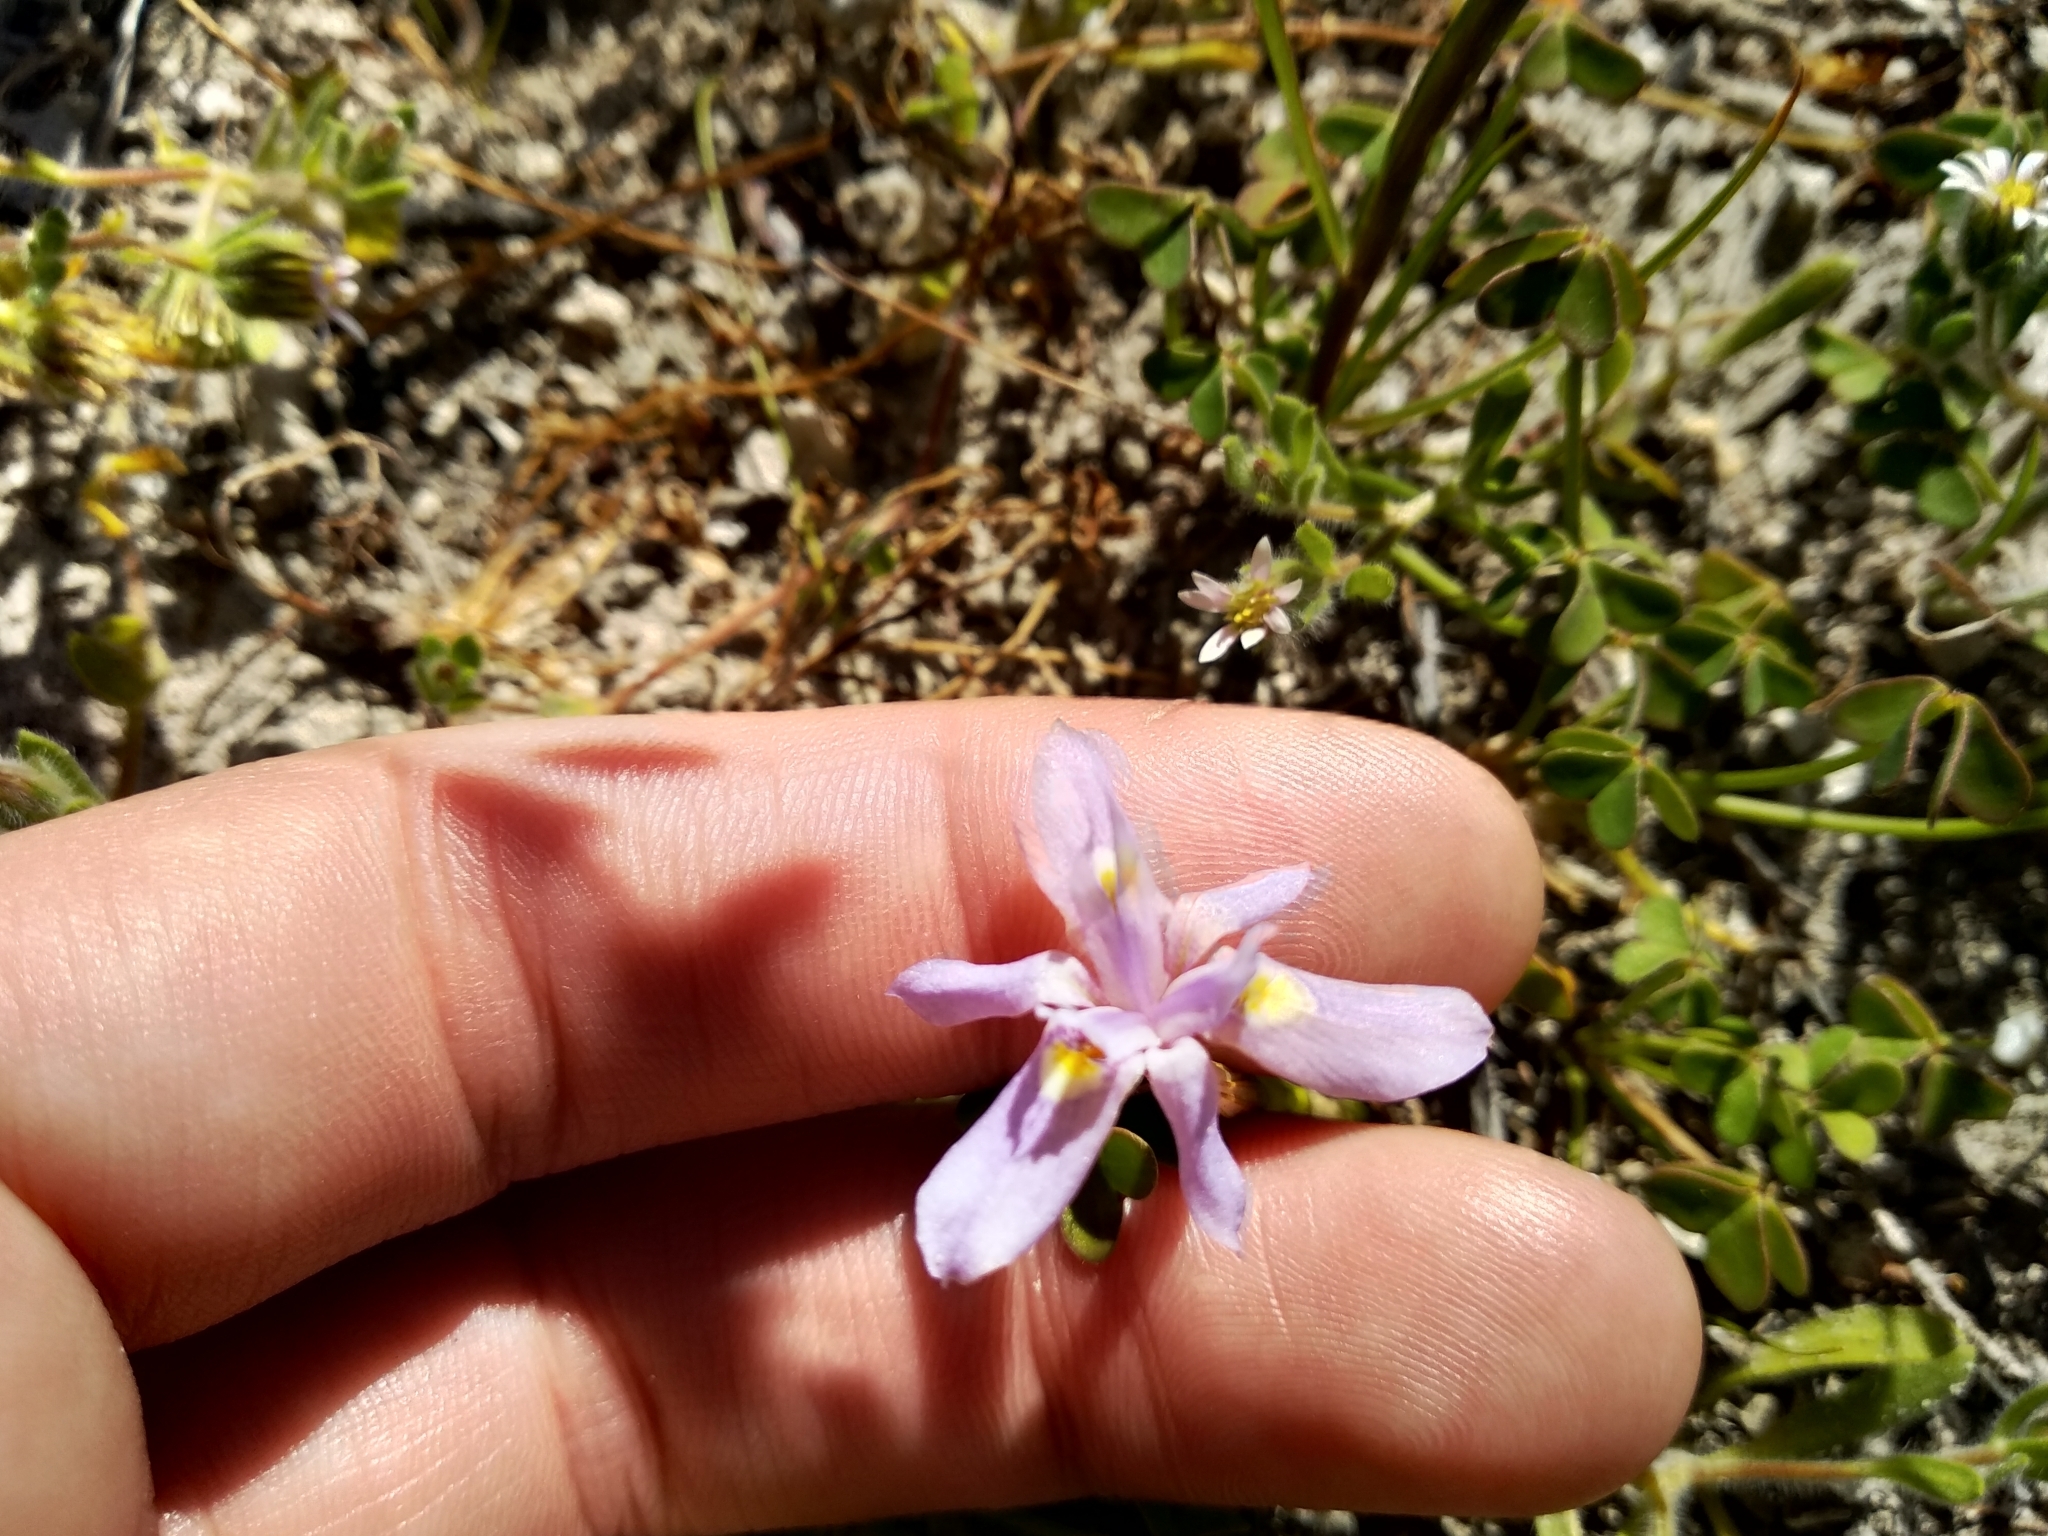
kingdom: Plantae
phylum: Tracheophyta
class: Liliopsida
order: Asparagales
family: Iridaceae
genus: Moraea
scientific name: Moraea setifolia
